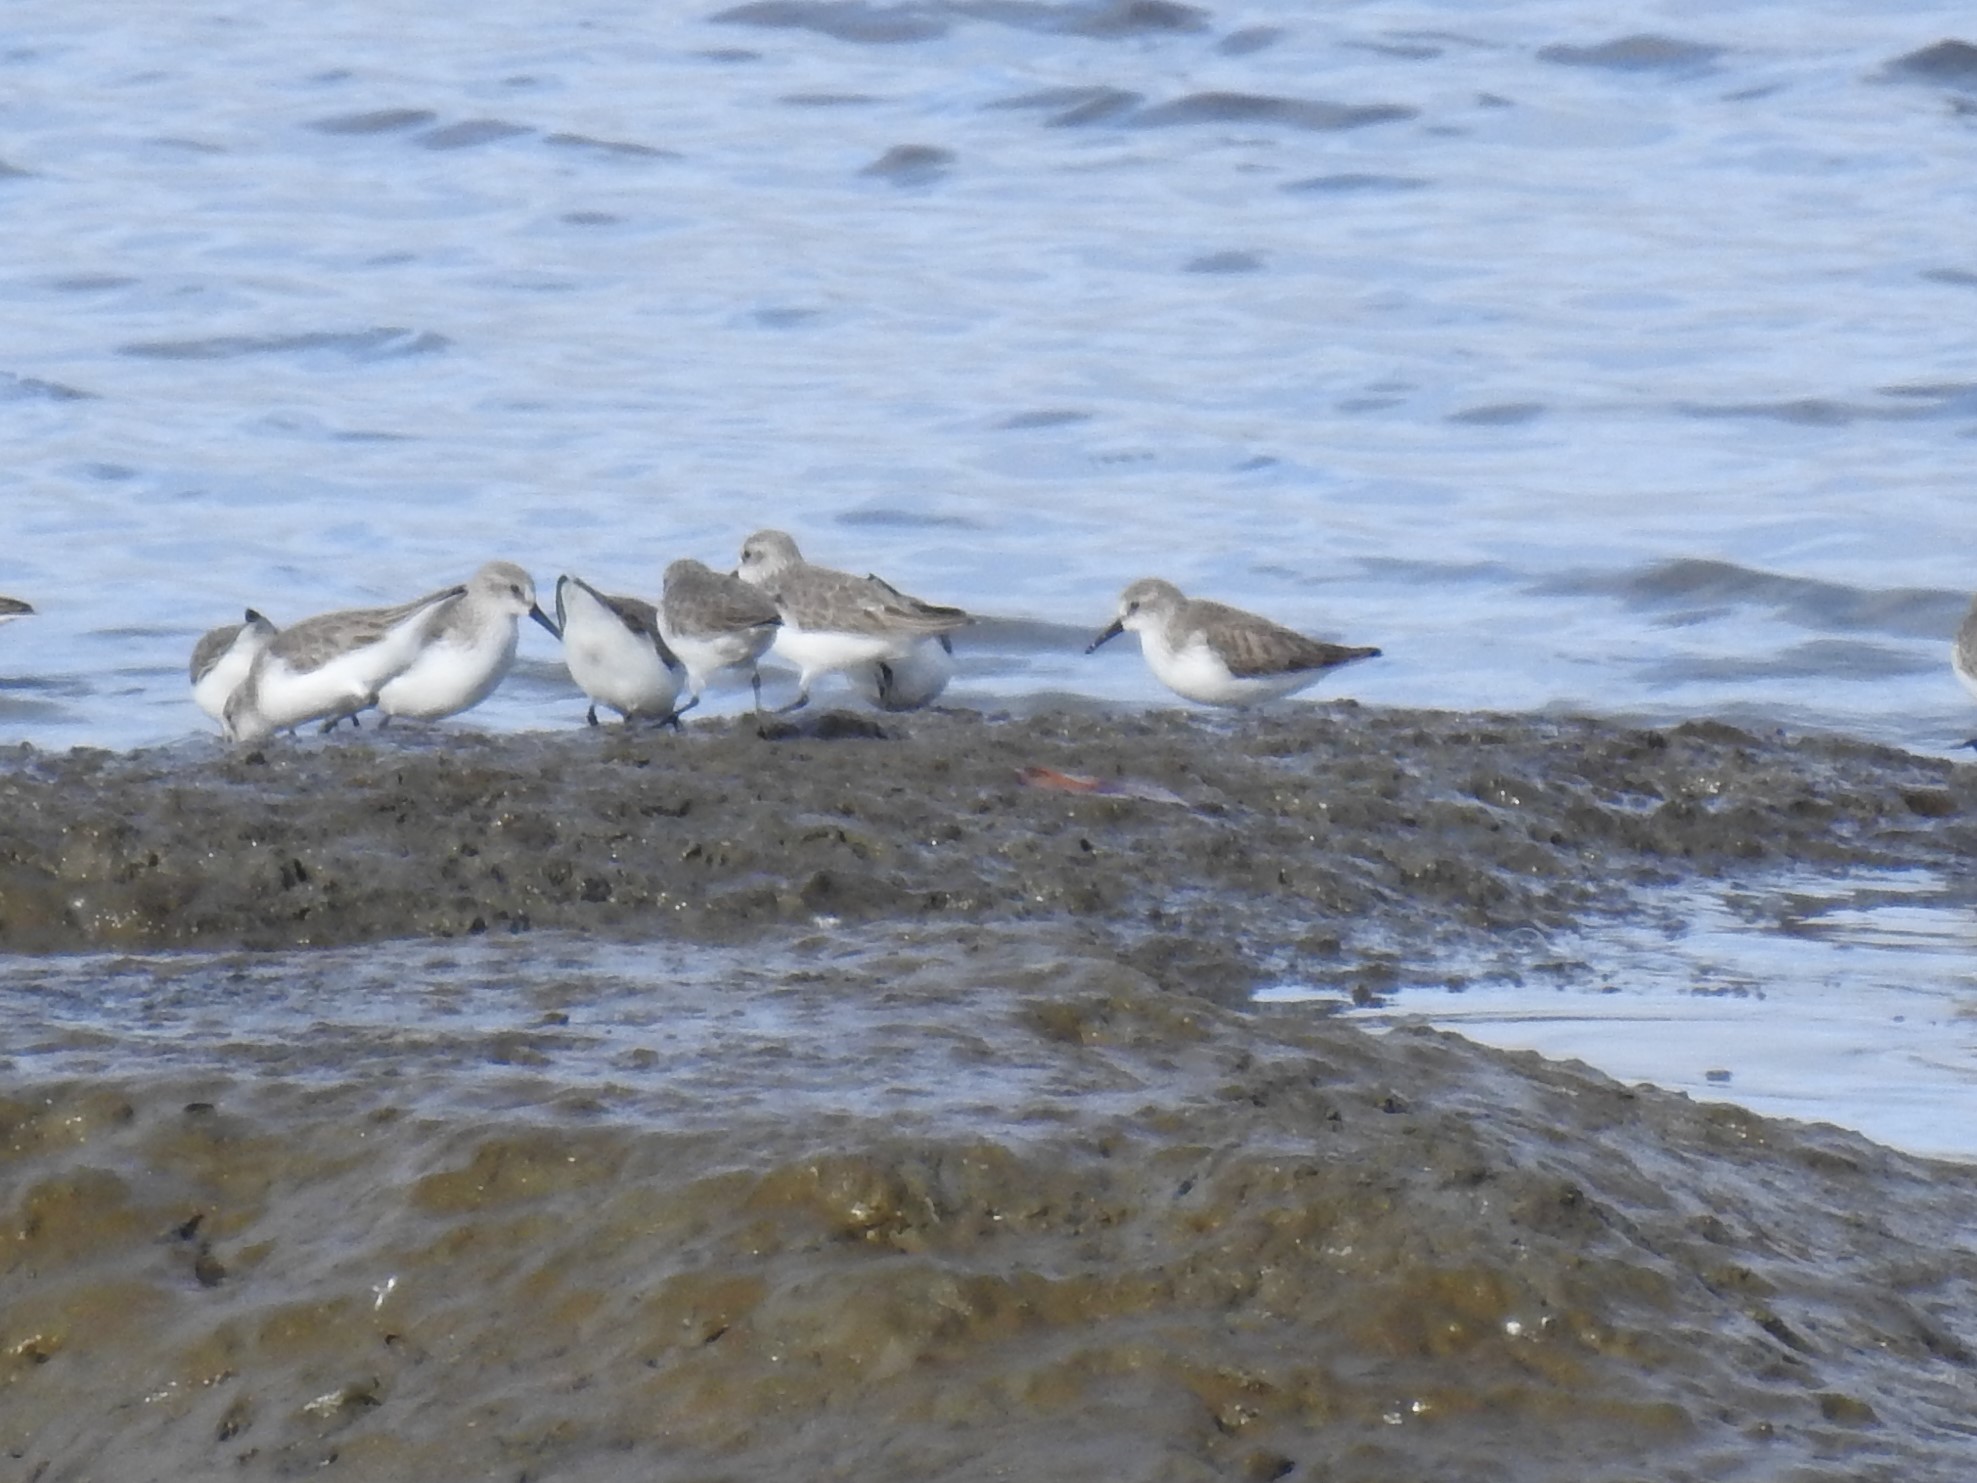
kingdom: Animalia
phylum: Chordata
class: Aves
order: Charadriiformes
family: Scolopacidae
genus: Calidris
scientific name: Calidris mauri
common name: Western sandpiper
